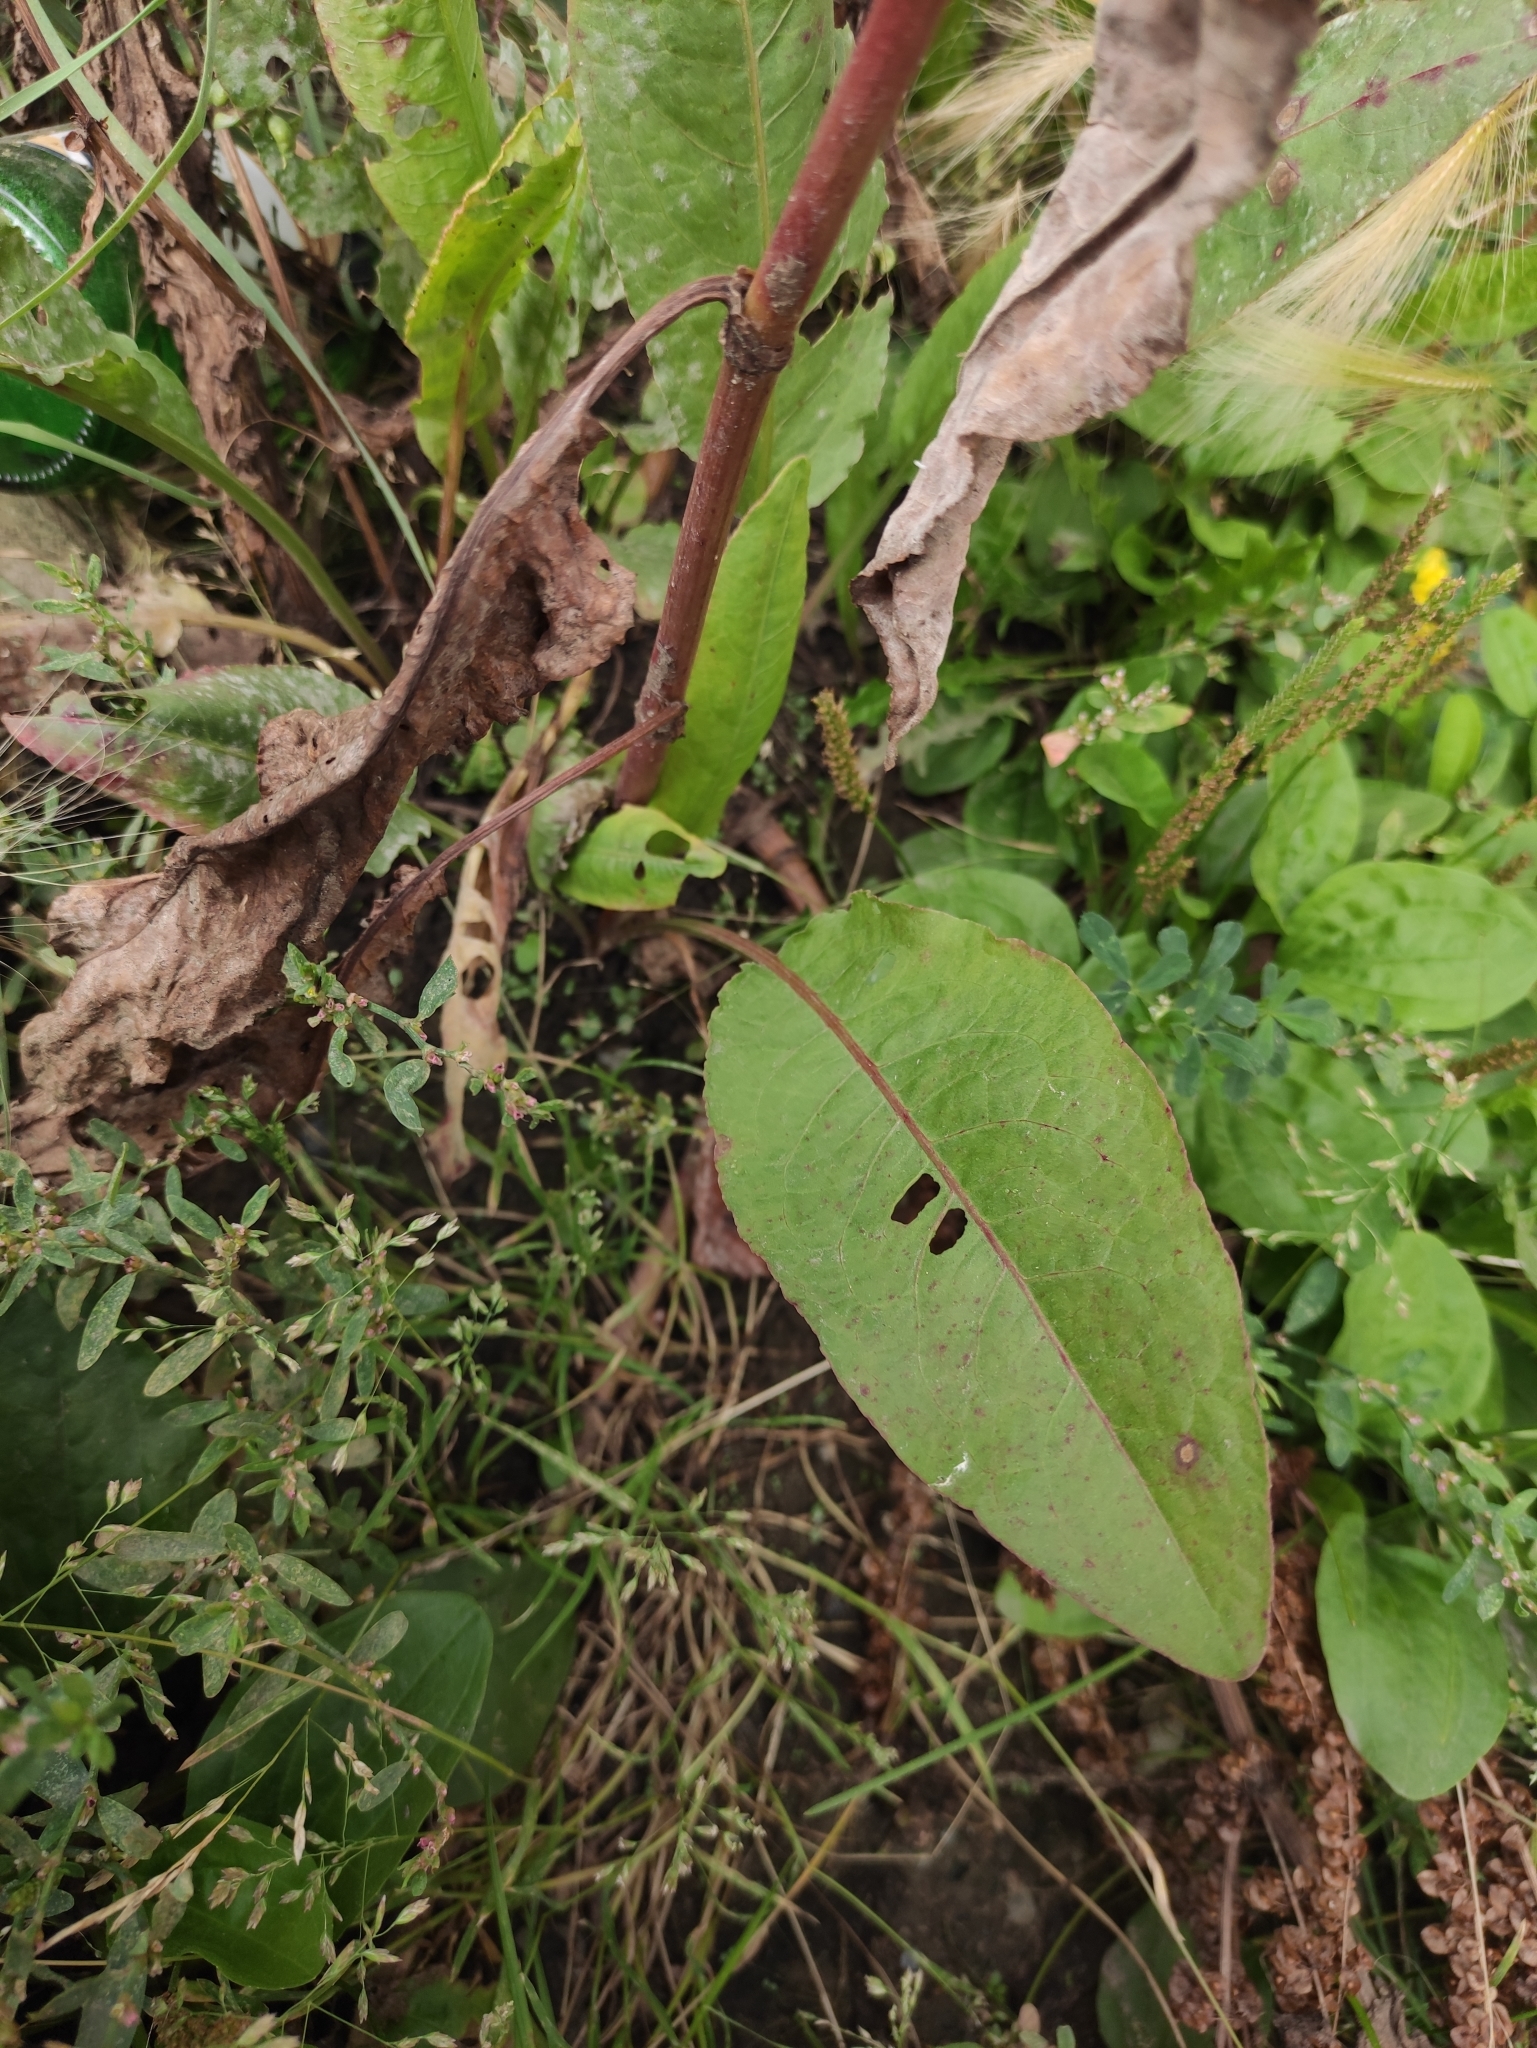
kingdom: Plantae
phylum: Tracheophyta
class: Magnoliopsida
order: Caryophyllales
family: Polygonaceae
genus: Rumex
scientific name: Rumex patientia
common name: Patience dock
